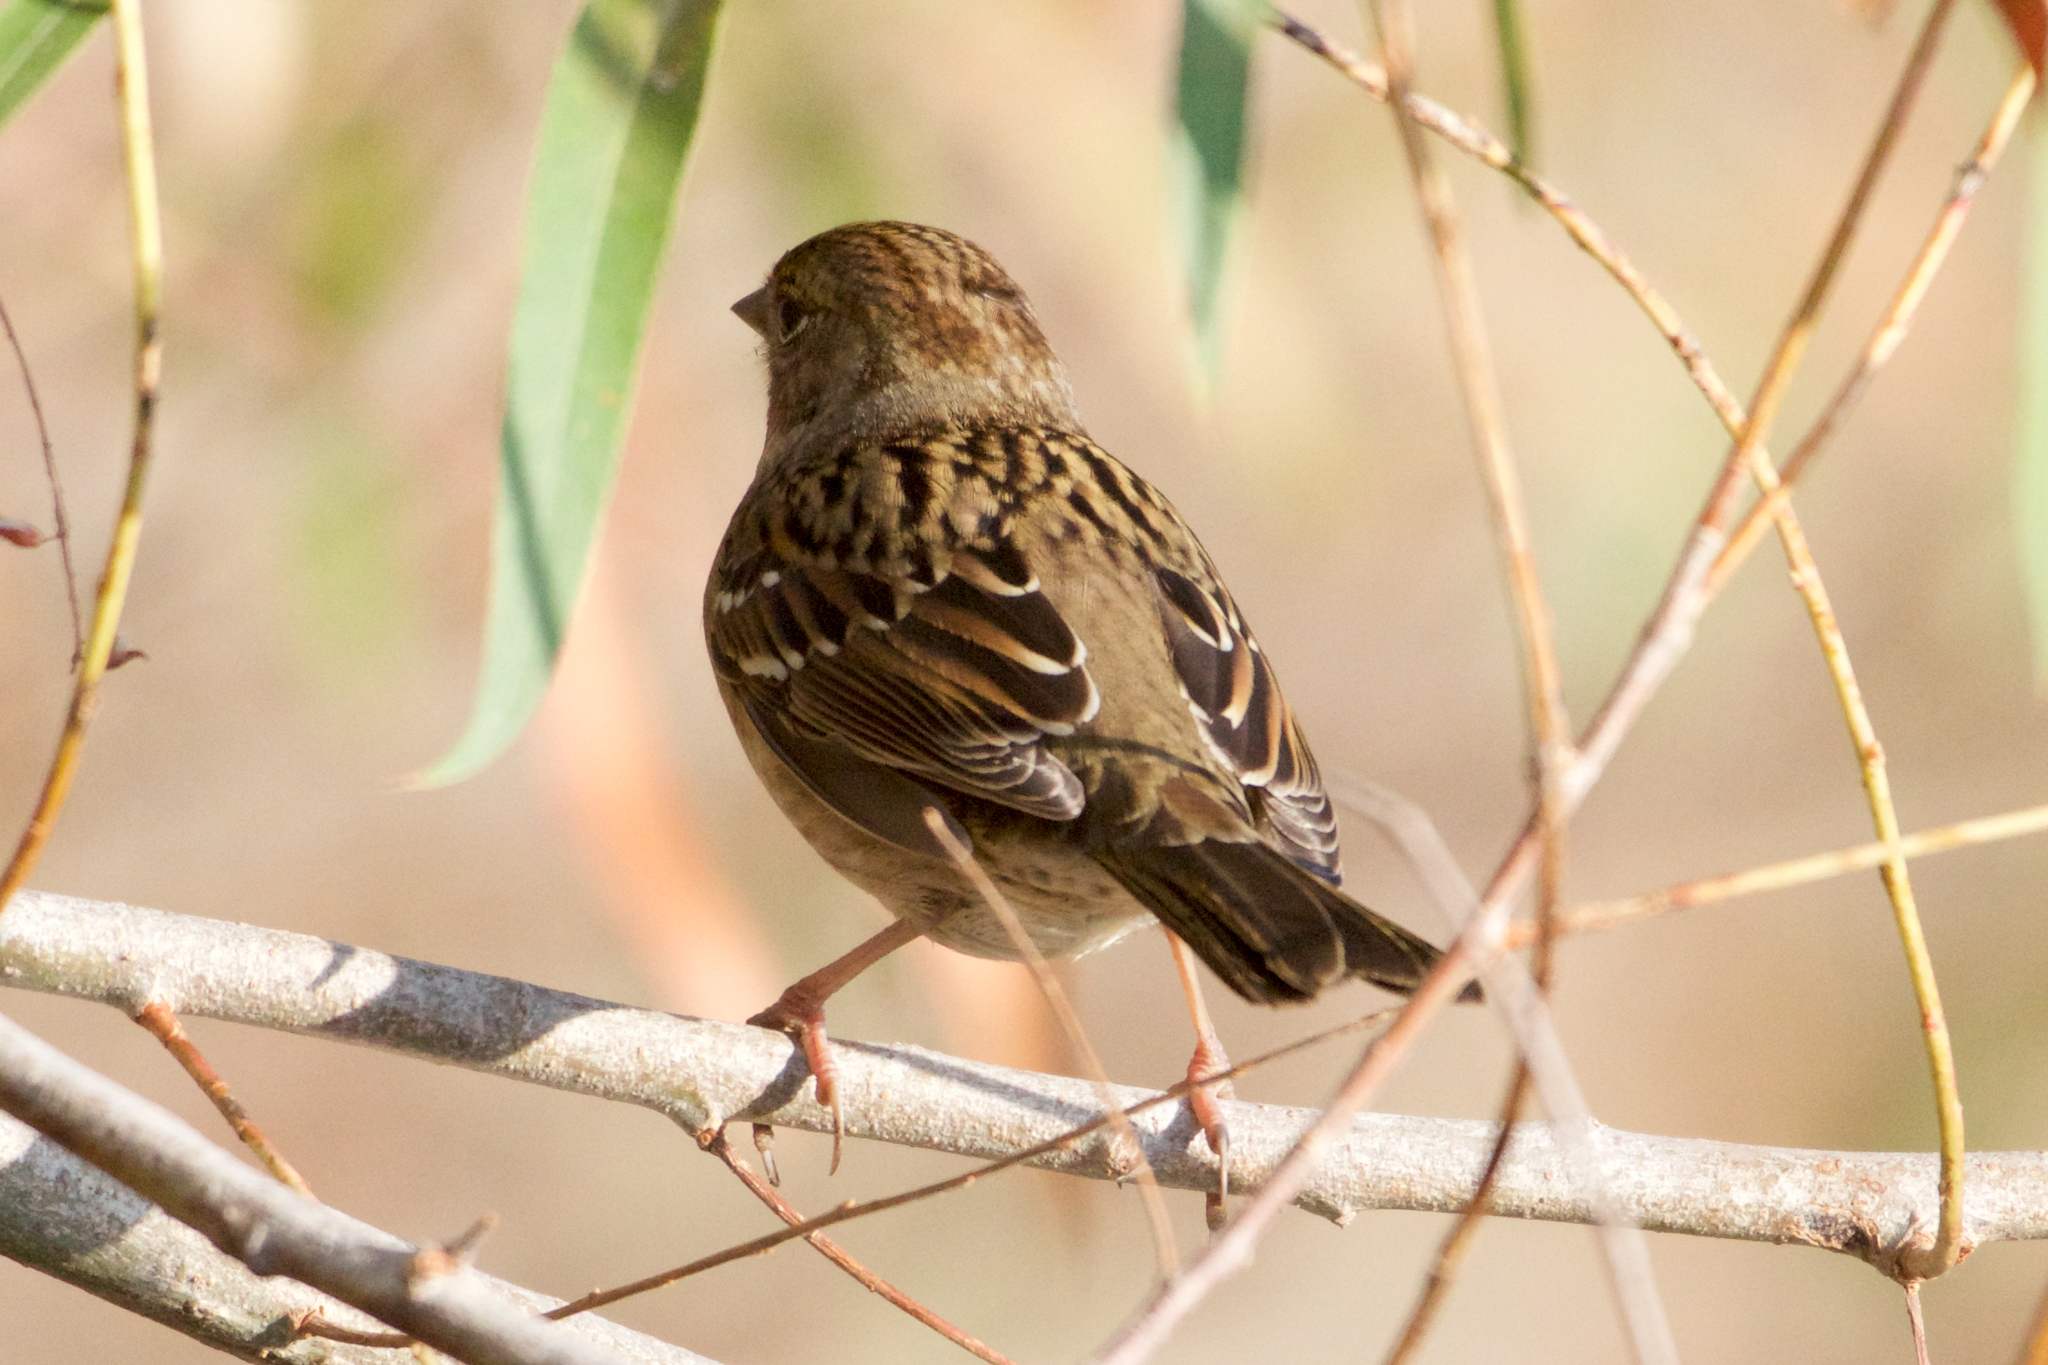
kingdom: Animalia
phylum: Chordata
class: Aves
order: Passeriformes
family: Passerellidae
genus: Zonotrichia
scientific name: Zonotrichia atricapilla
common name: Golden-crowned sparrow
